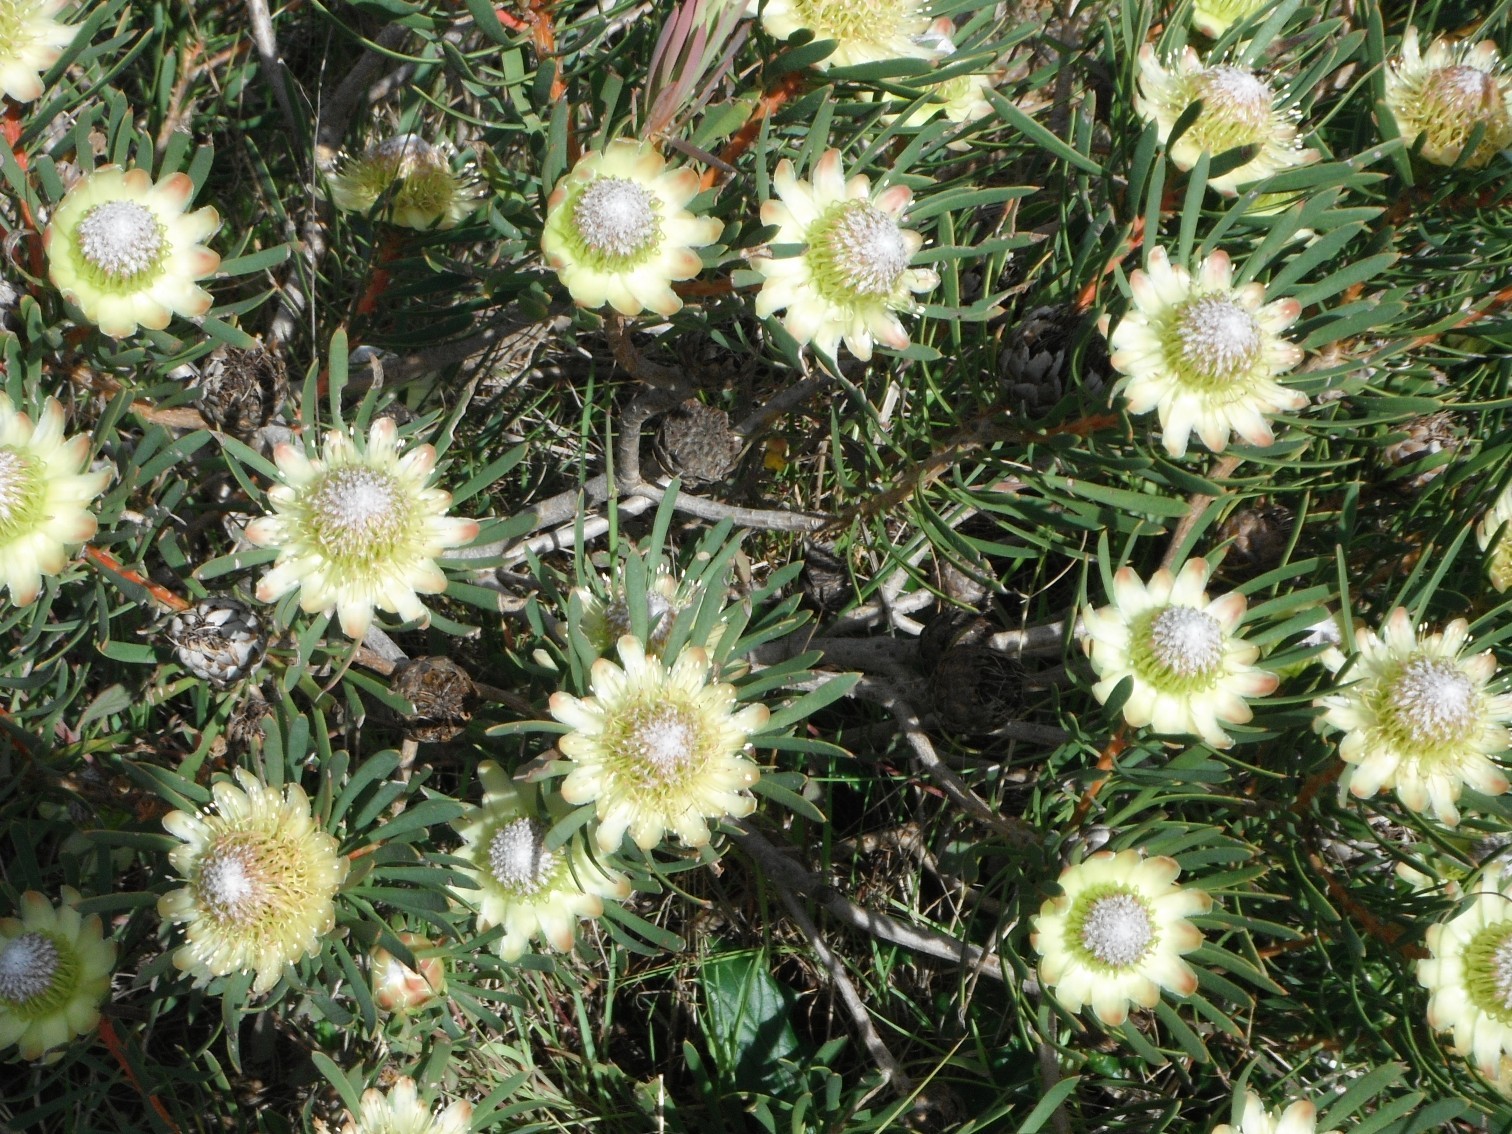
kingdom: Plantae
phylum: Tracheophyta
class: Magnoliopsida
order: Proteales
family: Proteaceae
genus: Protea
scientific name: Protea scolymocephala
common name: Thistle sugarbush
